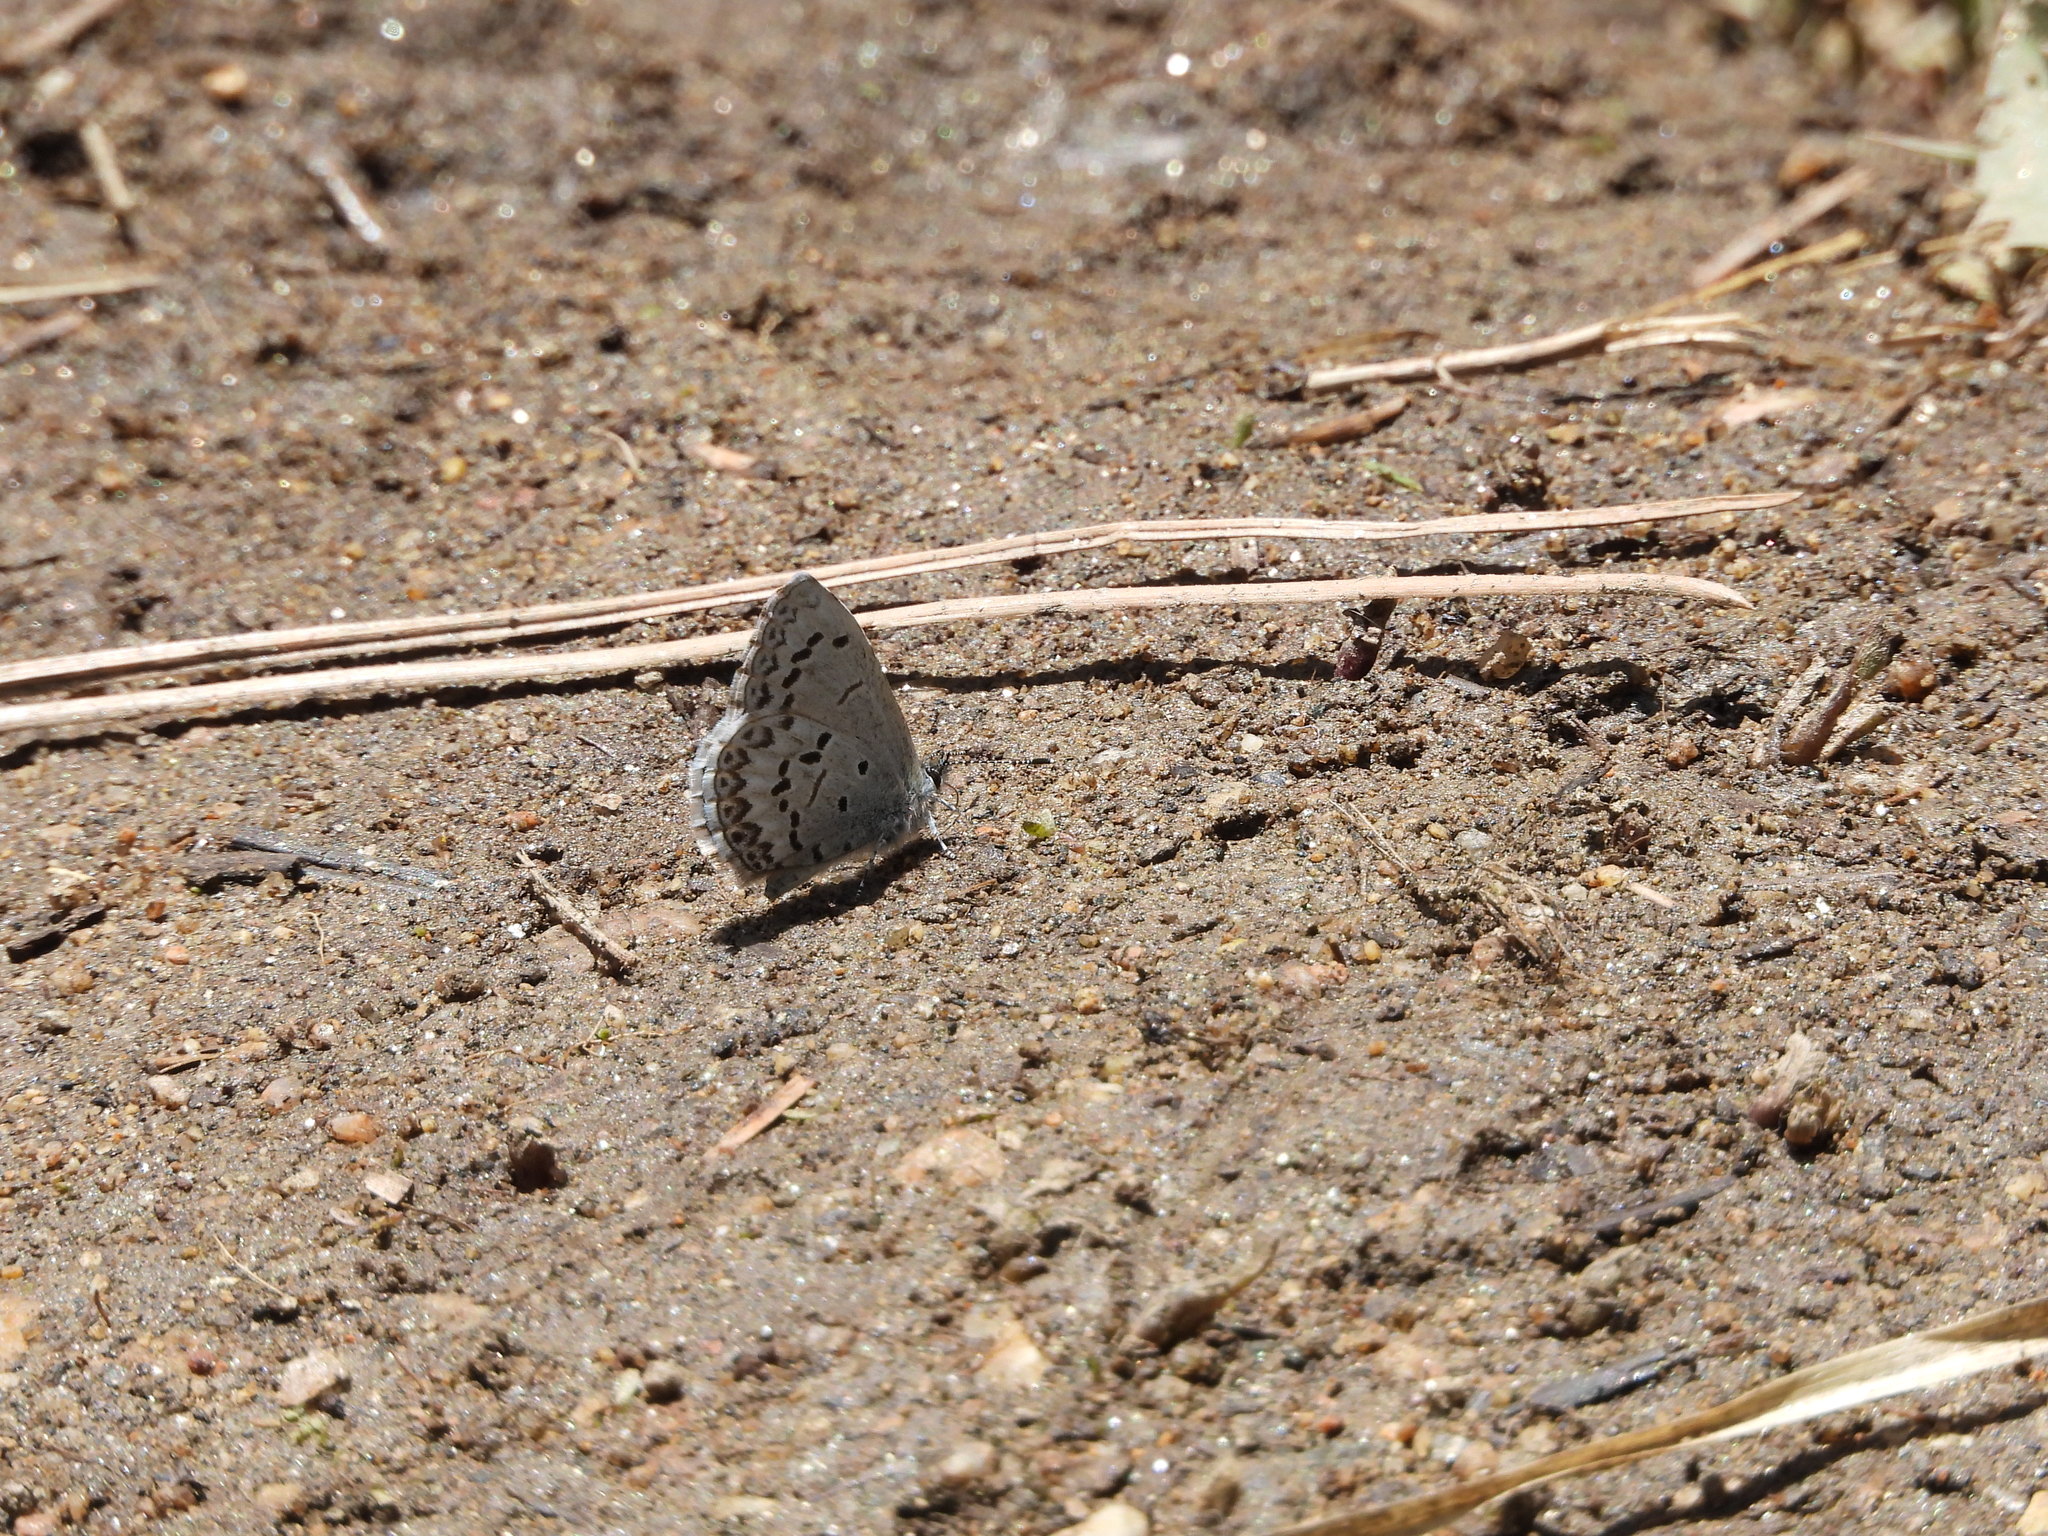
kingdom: Animalia
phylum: Arthropoda
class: Insecta
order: Lepidoptera
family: Lycaenidae
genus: Celastrina
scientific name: Celastrina ladon
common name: Spring azure
